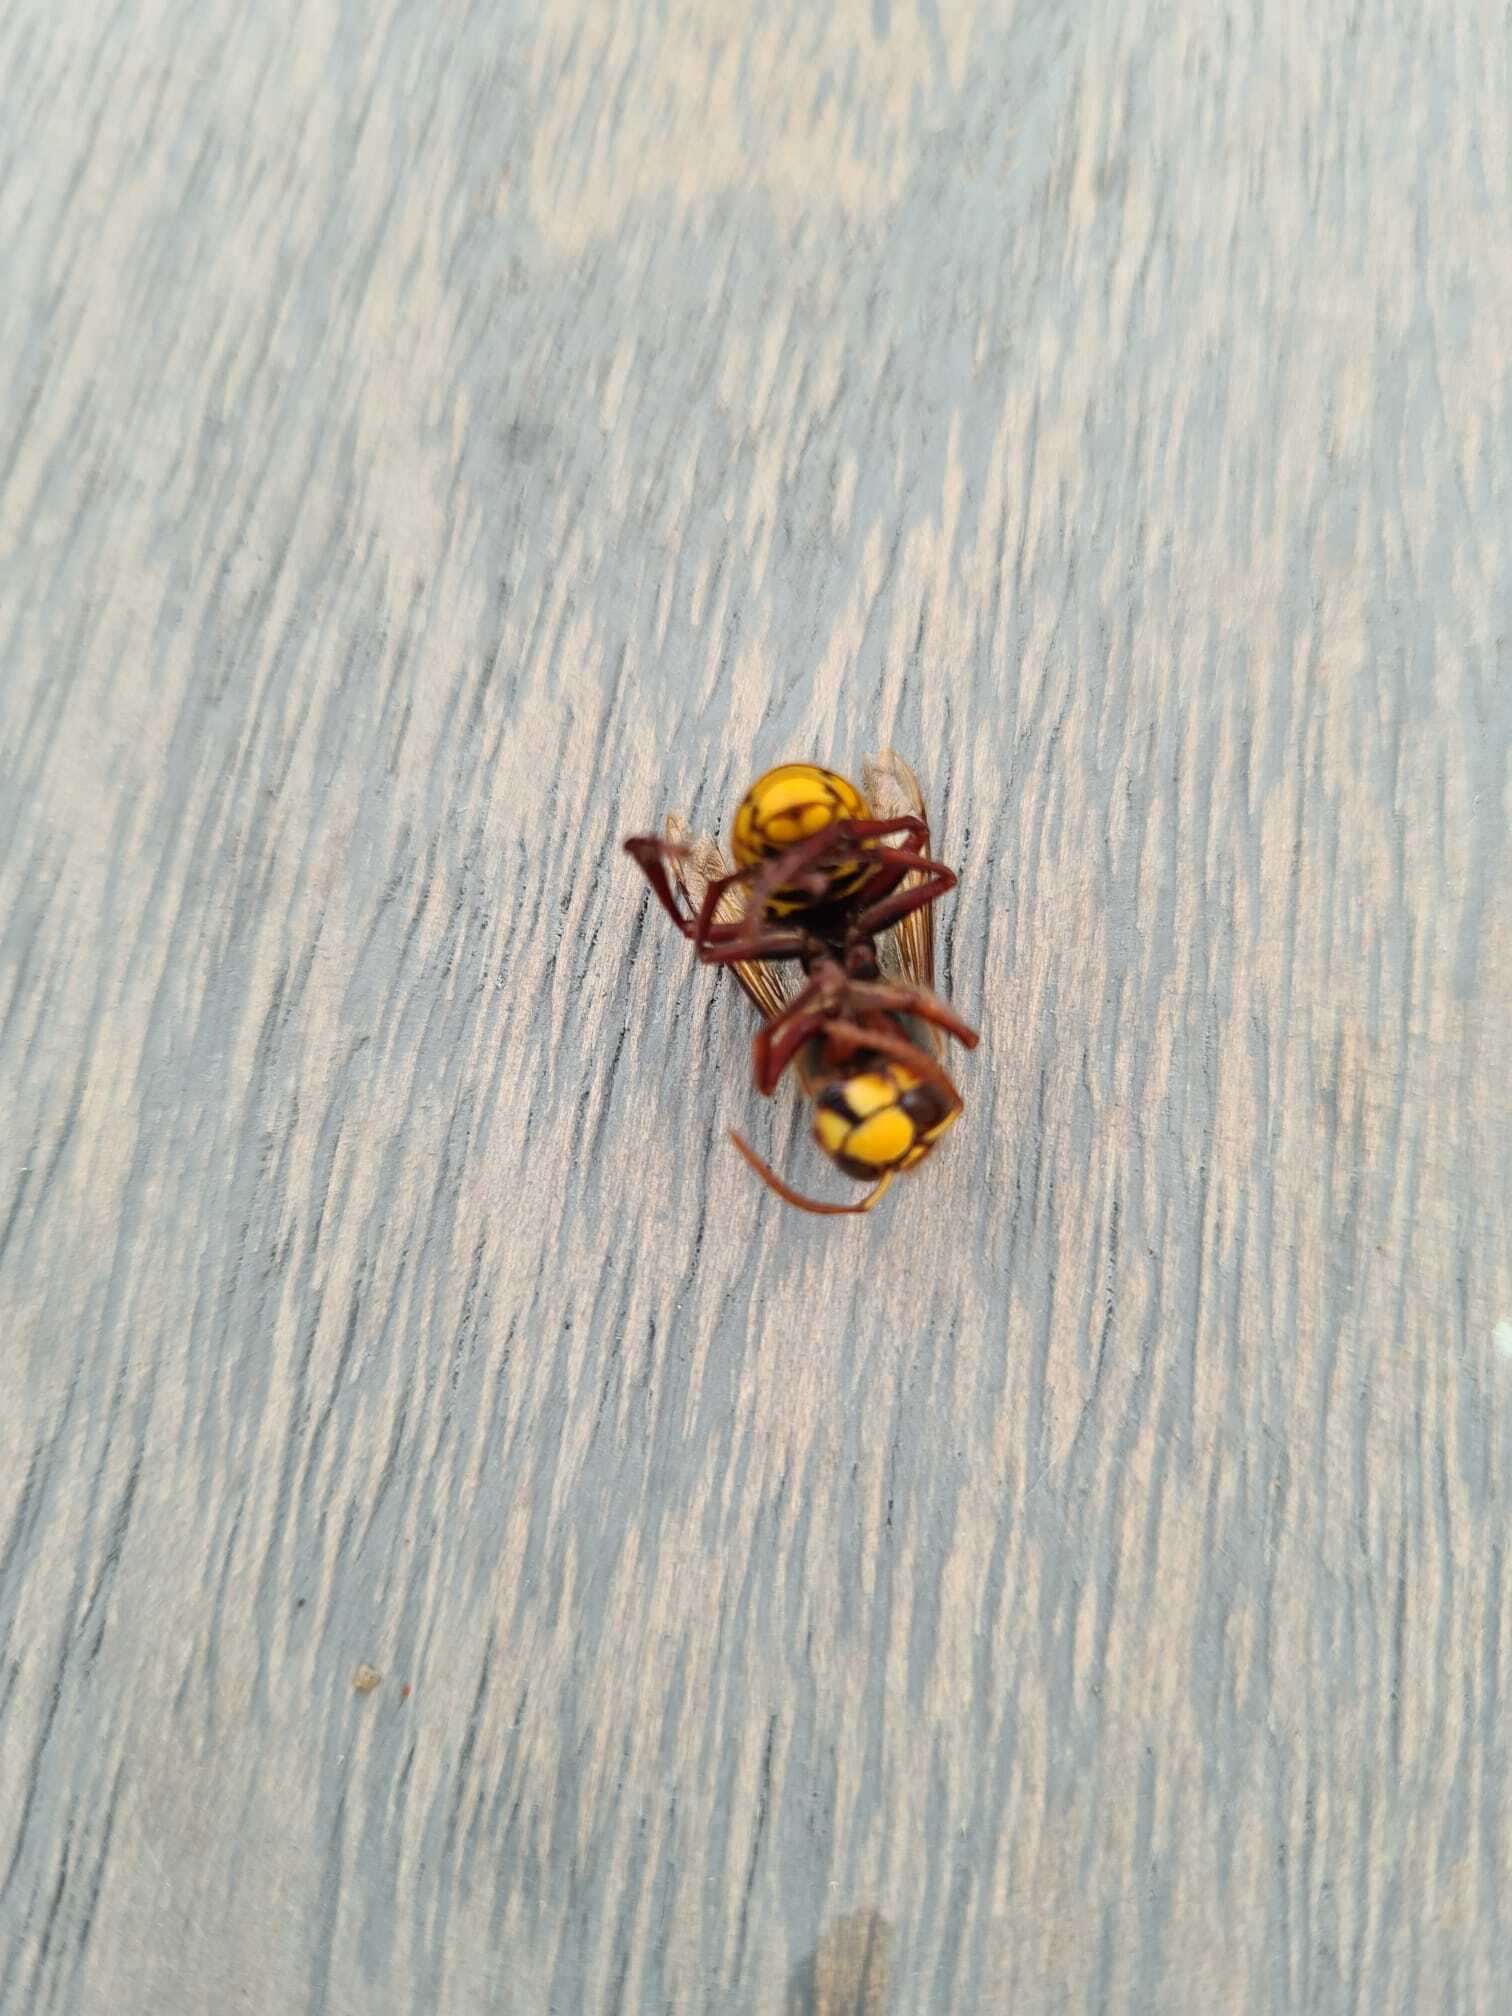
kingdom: Animalia
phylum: Arthropoda
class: Insecta
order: Hymenoptera
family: Vespidae
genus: Vespa
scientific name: Vespa crabro
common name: Hornet
